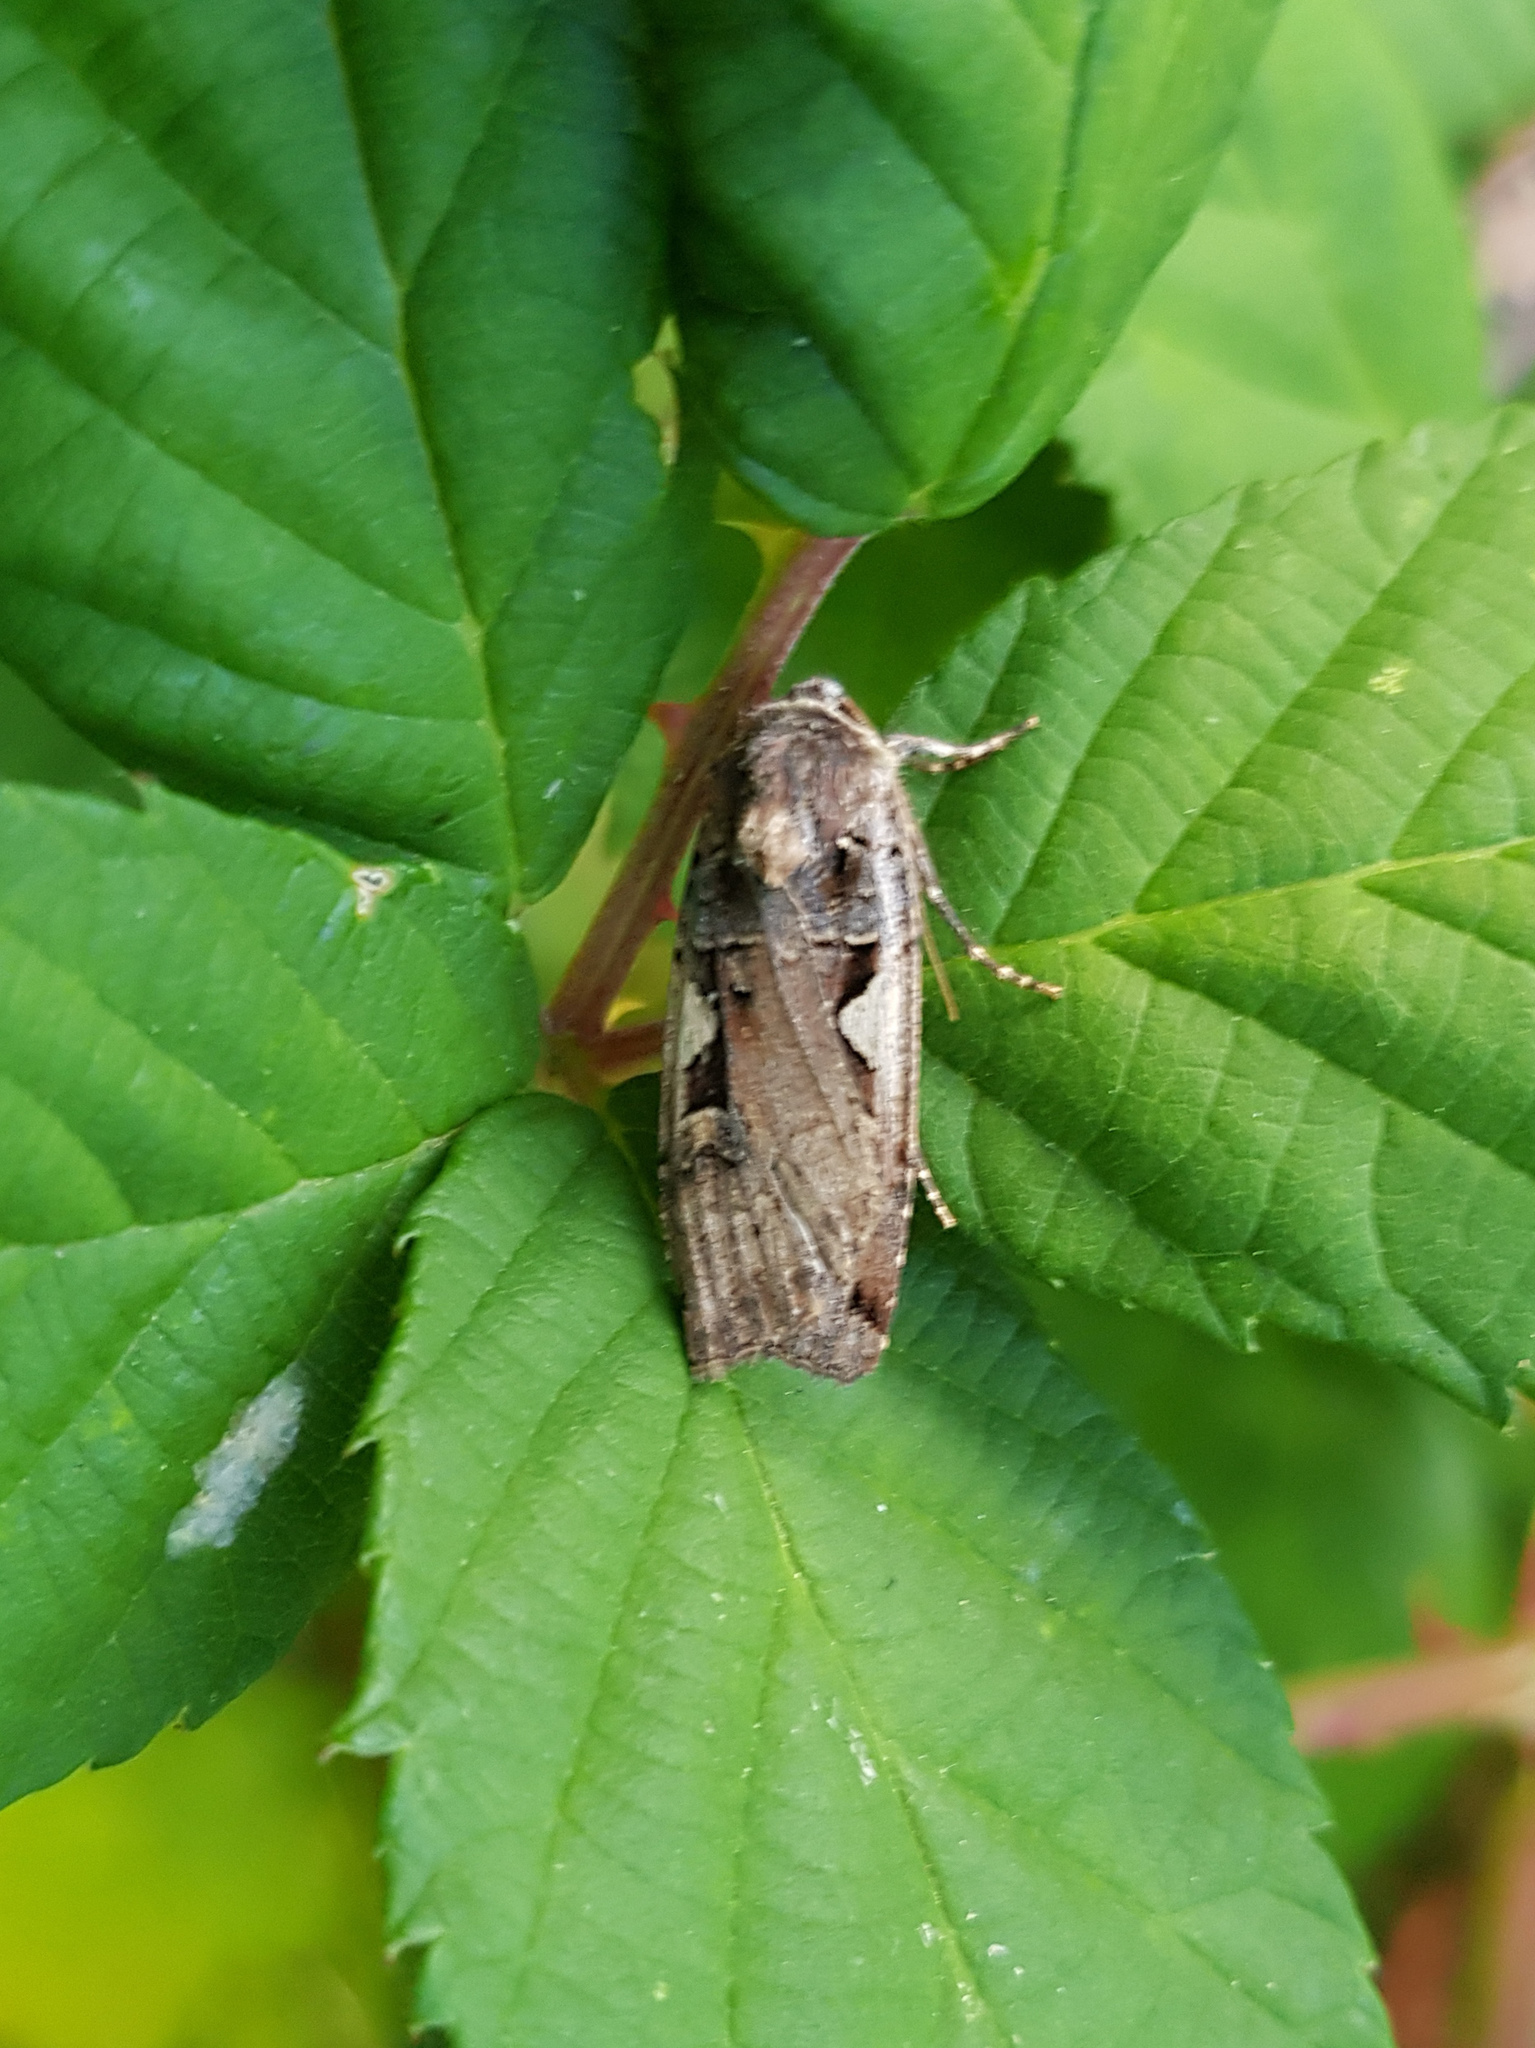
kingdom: Animalia
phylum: Arthropoda
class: Insecta
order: Lepidoptera
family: Noctuidae
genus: Xestia
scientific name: Xestia c-nigrum
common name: Setaceous hebrew character
